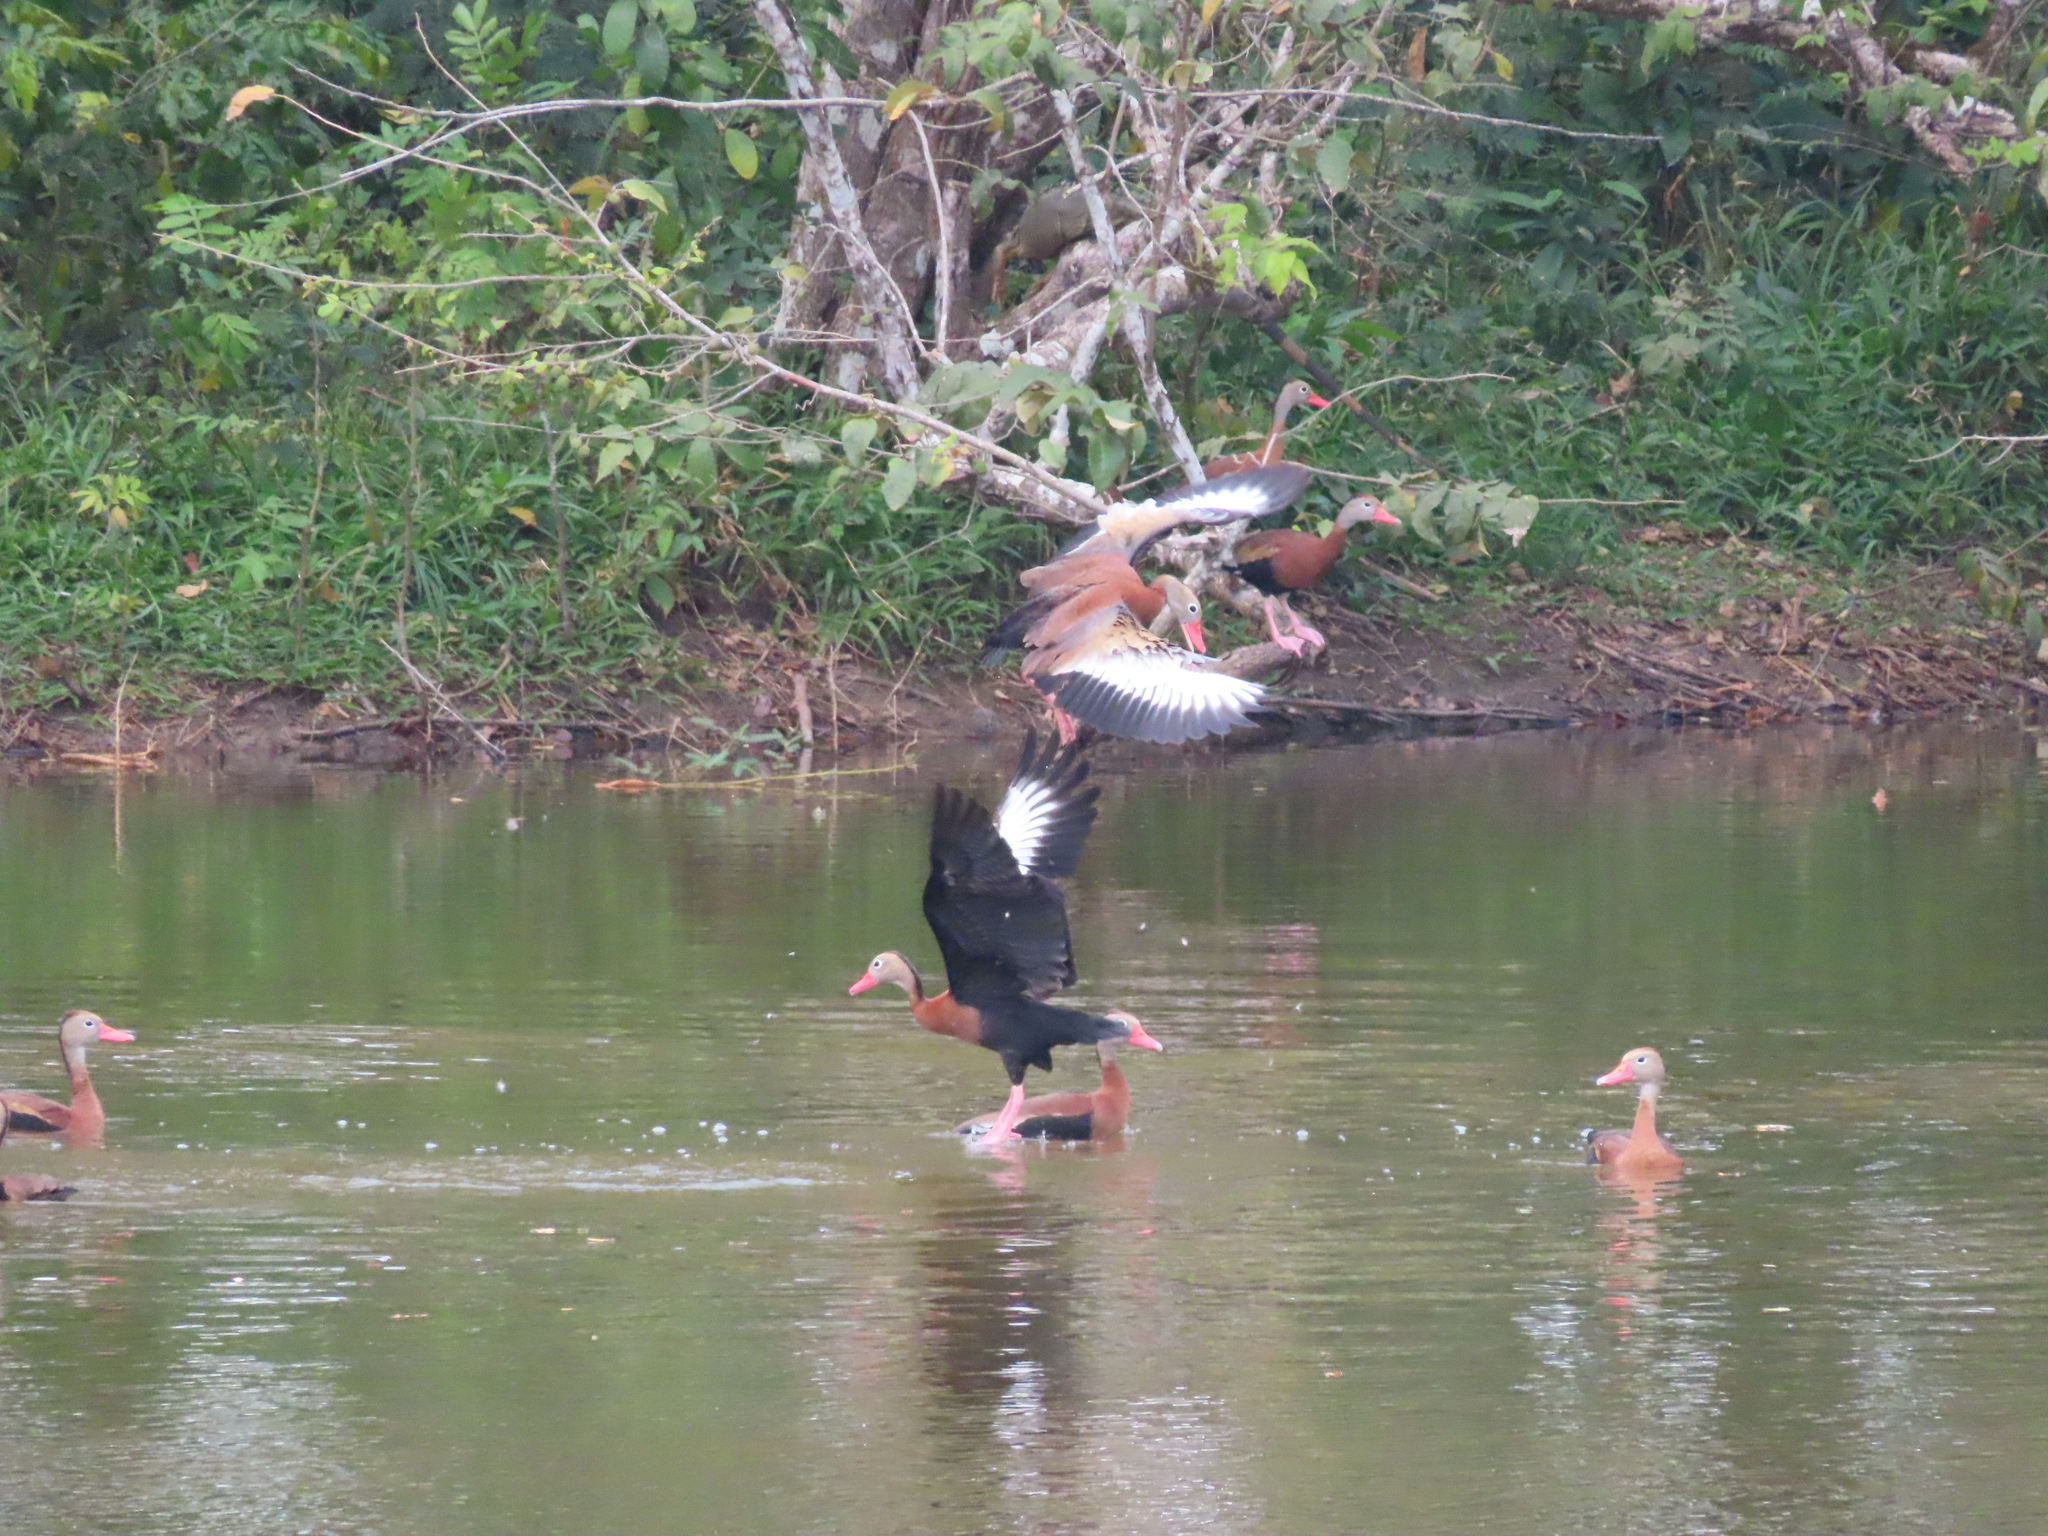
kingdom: Animalia
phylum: Chordata
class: Aves
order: Anseriformes
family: Anatidae
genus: Dendrocygna
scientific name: Dendrocygna autumnalis
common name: Black-bellied whistling duck
